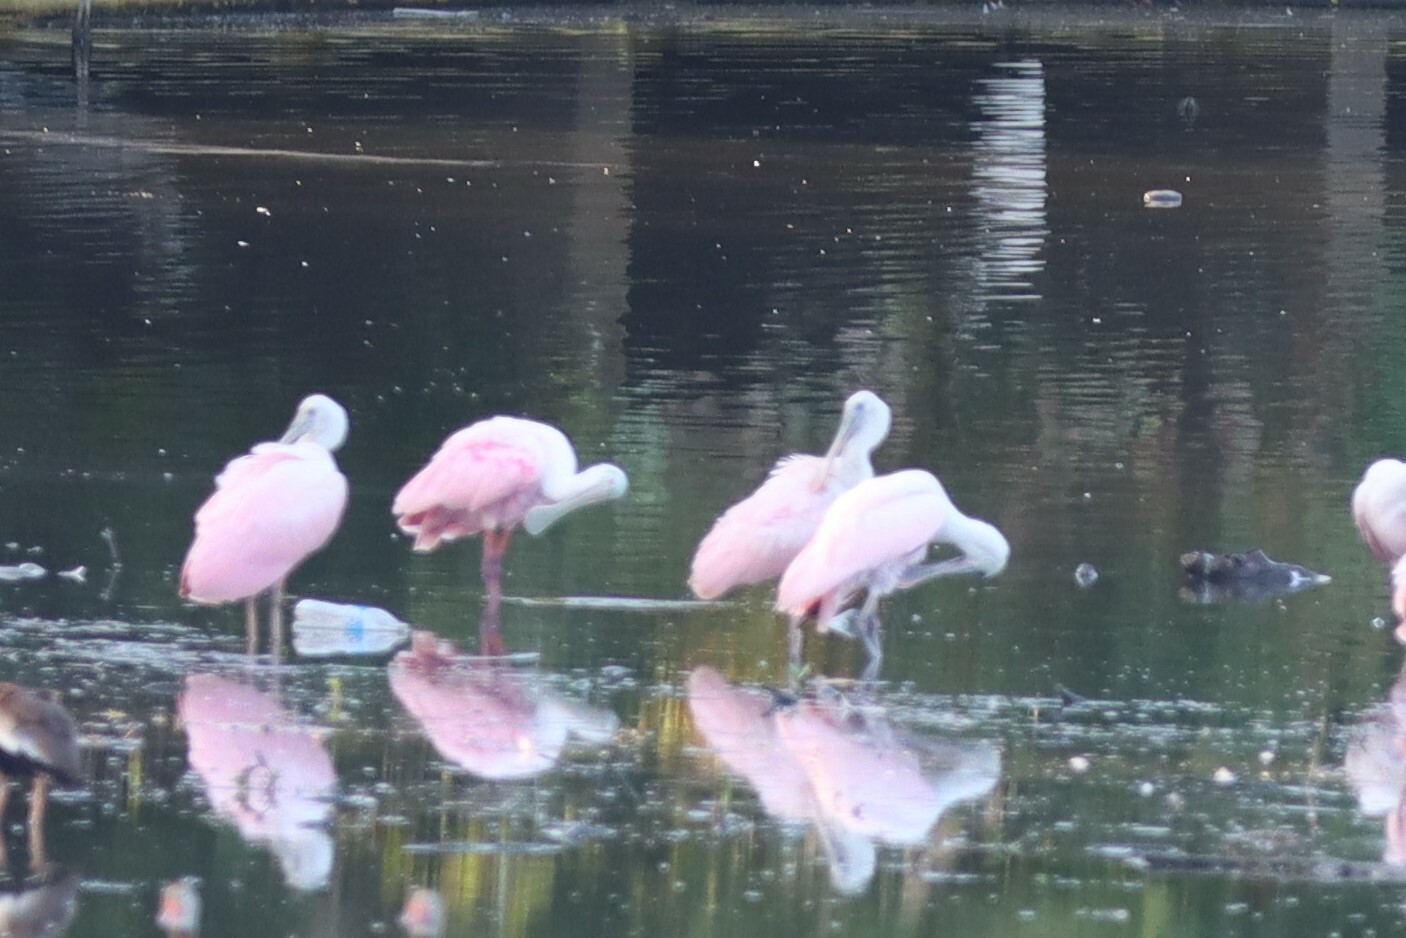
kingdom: Animalia
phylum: Chordata
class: Aves
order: Pelecaniformes
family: Threskiornithidae
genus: Platalea
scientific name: Platalea ajaja
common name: Roseate spoonbill
